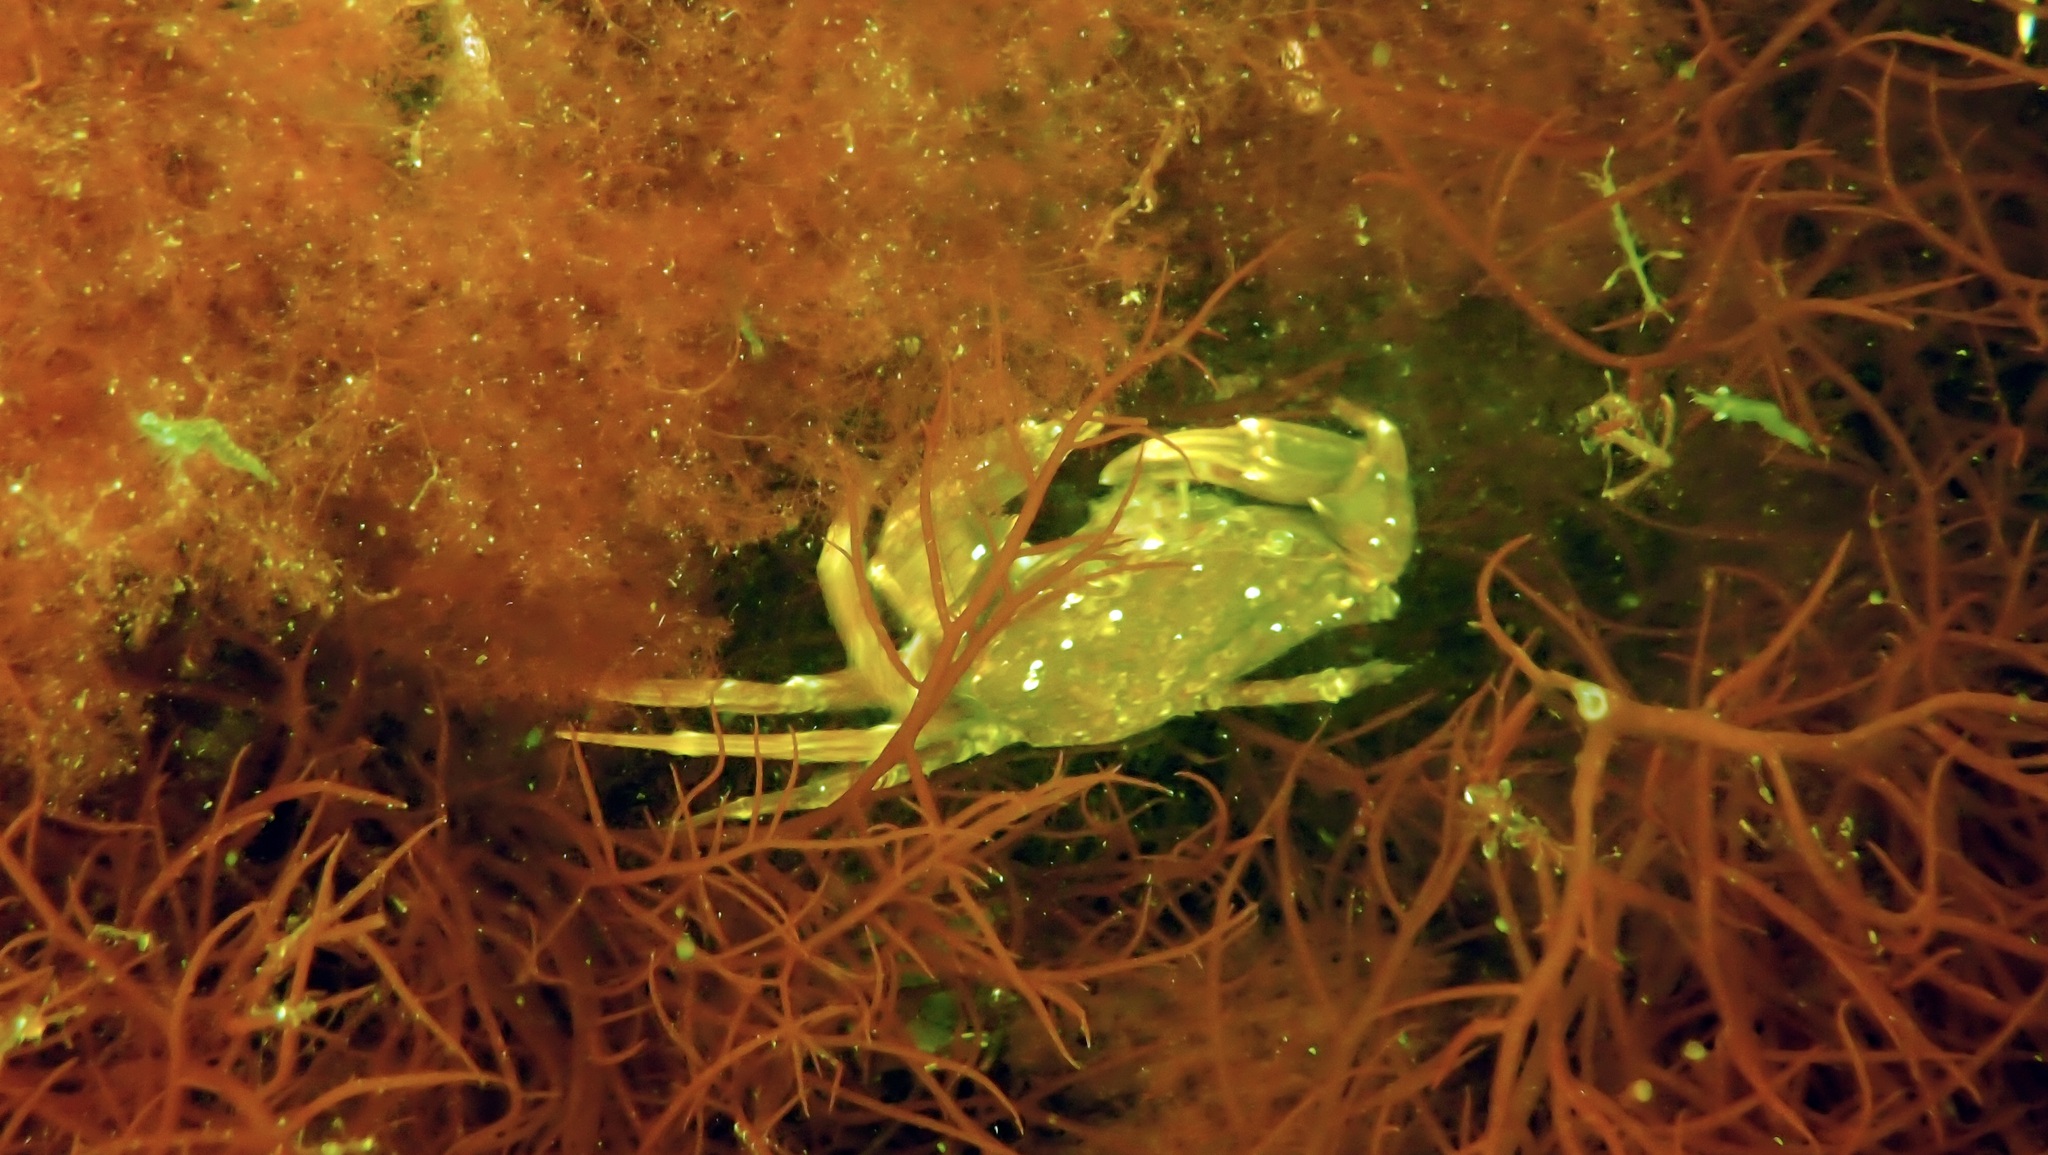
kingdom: Animalia
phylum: Arthropoda
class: Malacostraca
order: Decapoda
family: Carcinidae
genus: Carcinus
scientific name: Carcinus maenas
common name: European green crab
